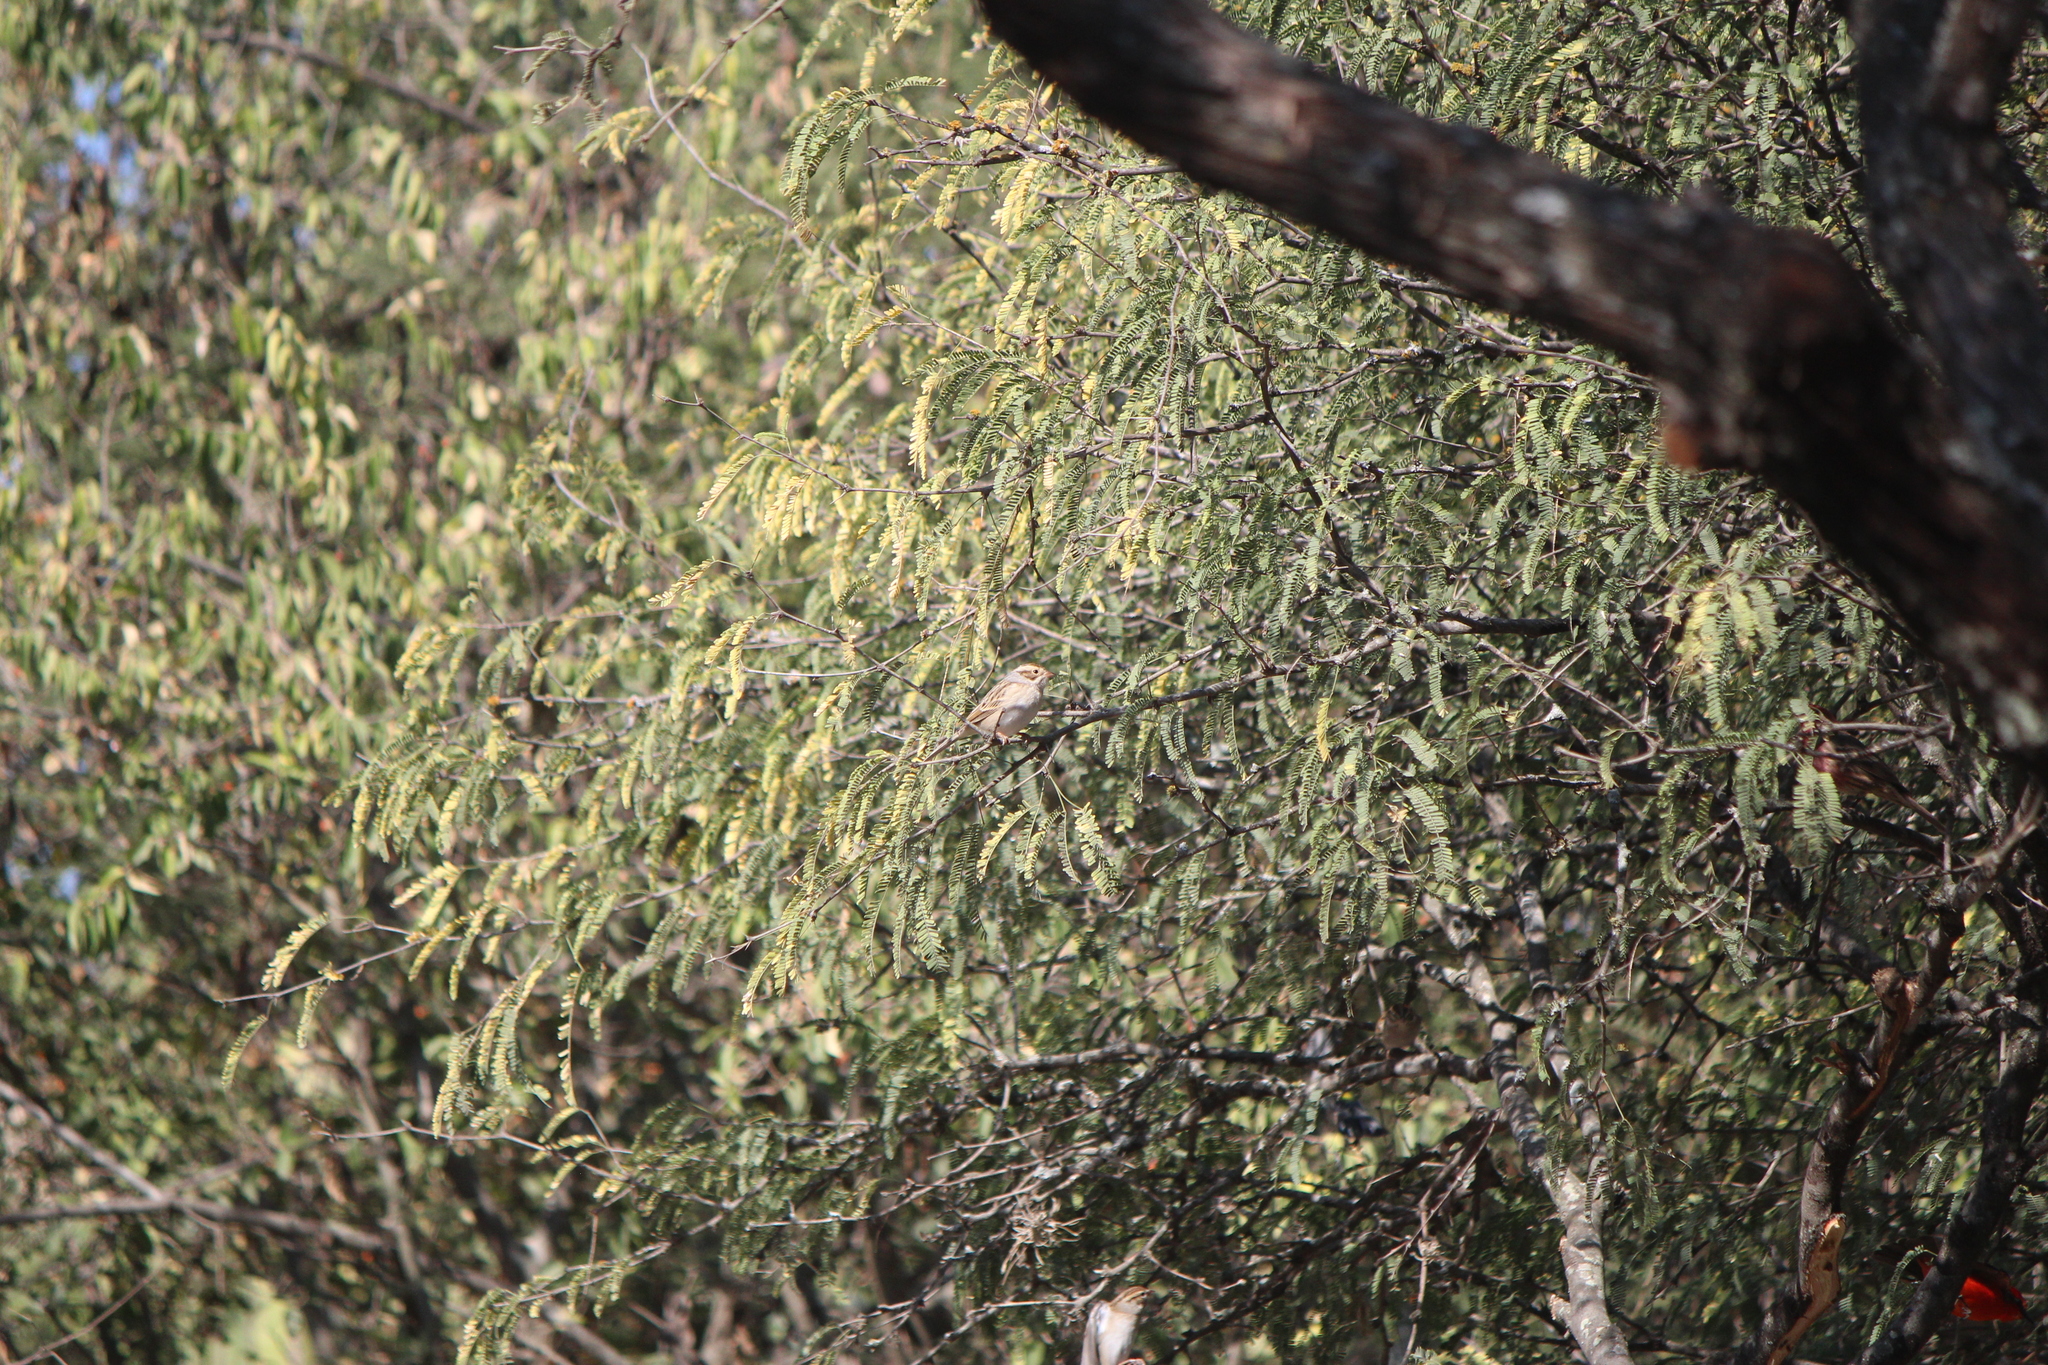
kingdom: Animalia
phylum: Chordata
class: Aves
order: Passeriformes
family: Passerellidae
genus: Spizella
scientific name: Spizella pallida
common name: Clay-colored sparrow
